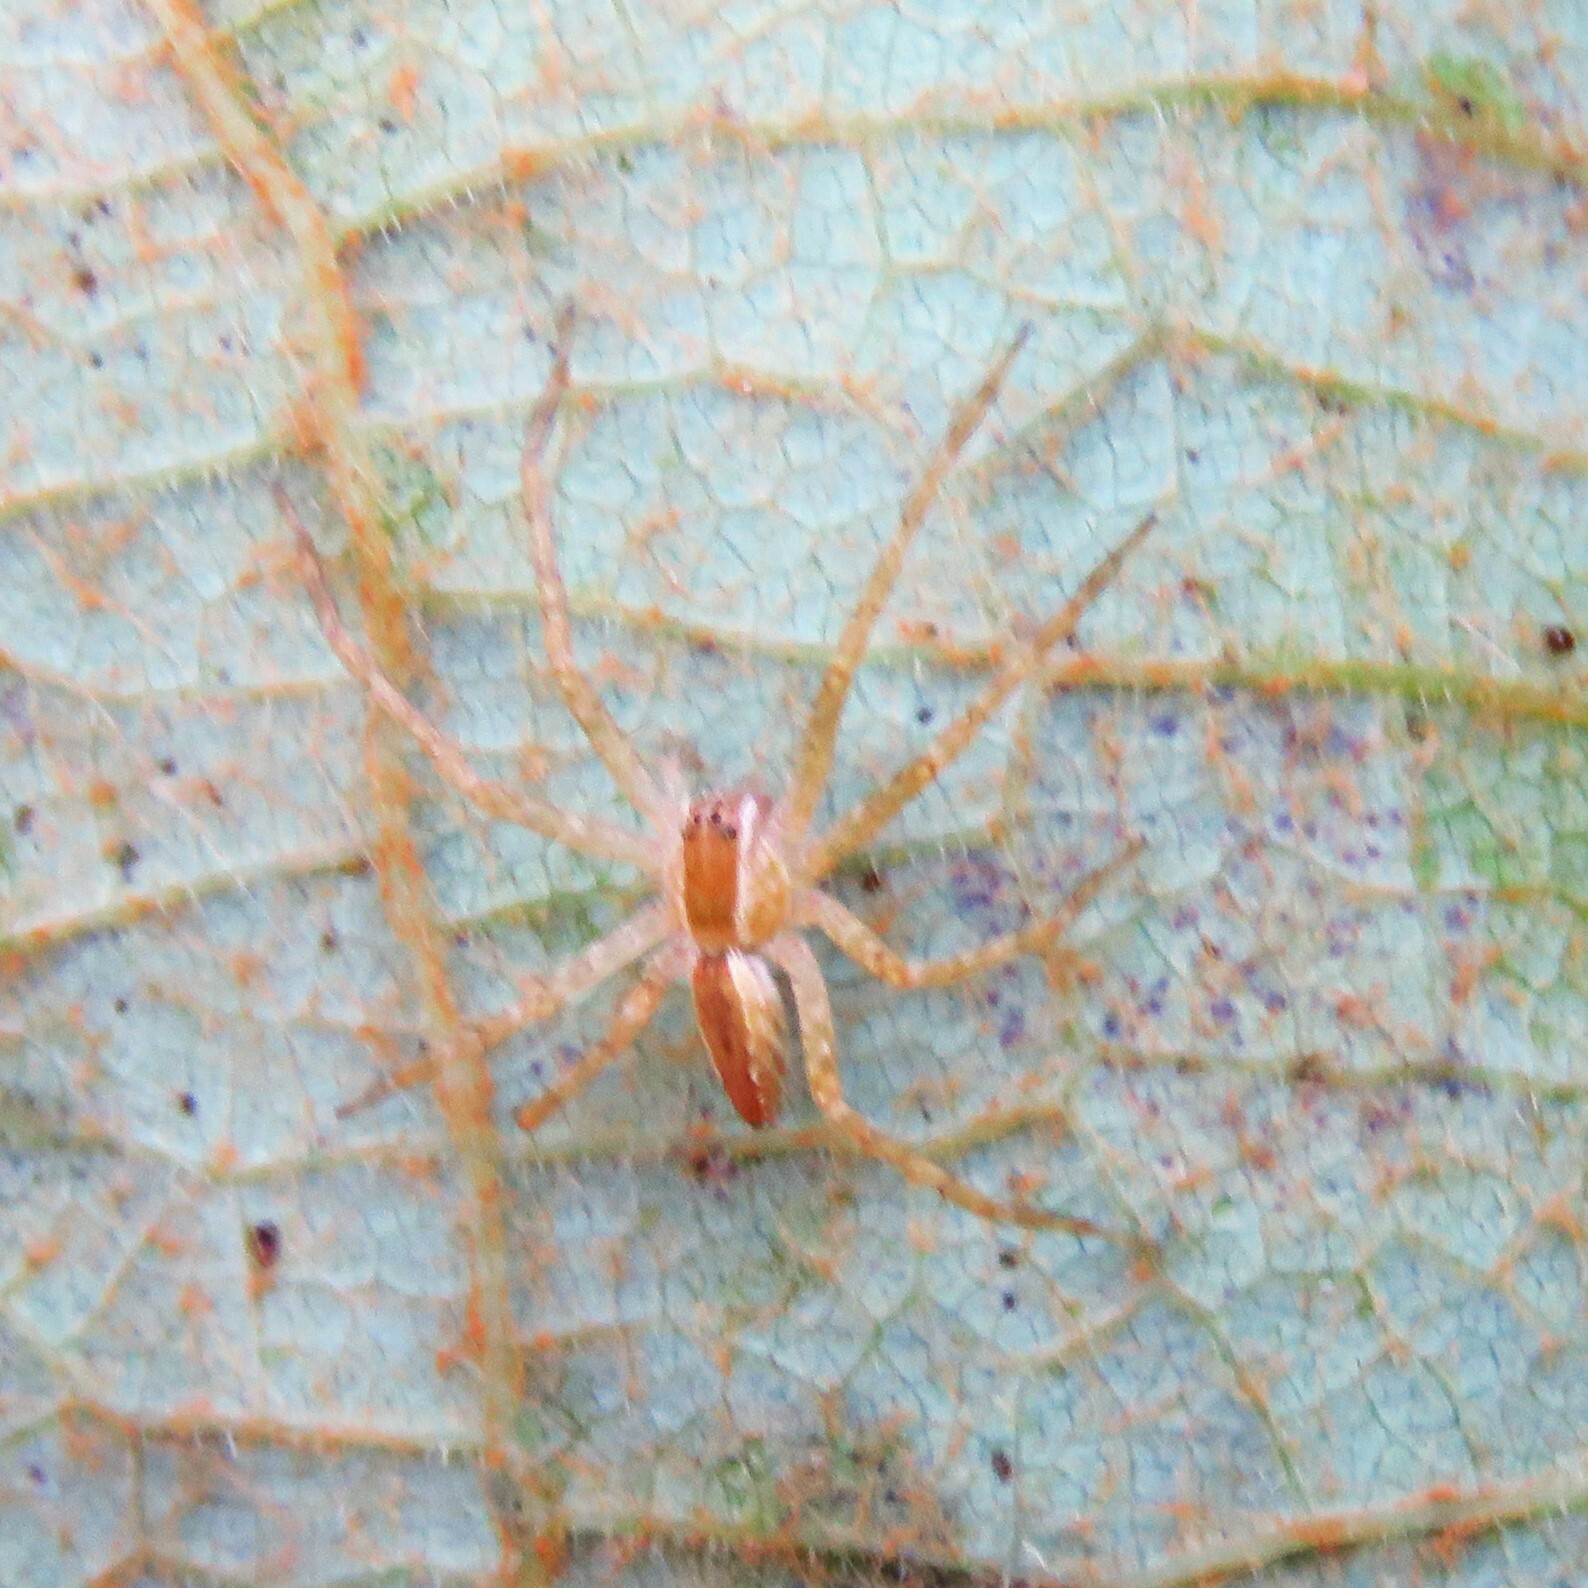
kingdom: Animalia
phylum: Arthropoda
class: Arachnida
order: Araneae
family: Pisauridae
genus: Pisaurina
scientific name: Pisaurina mira
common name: American nursery web spider
